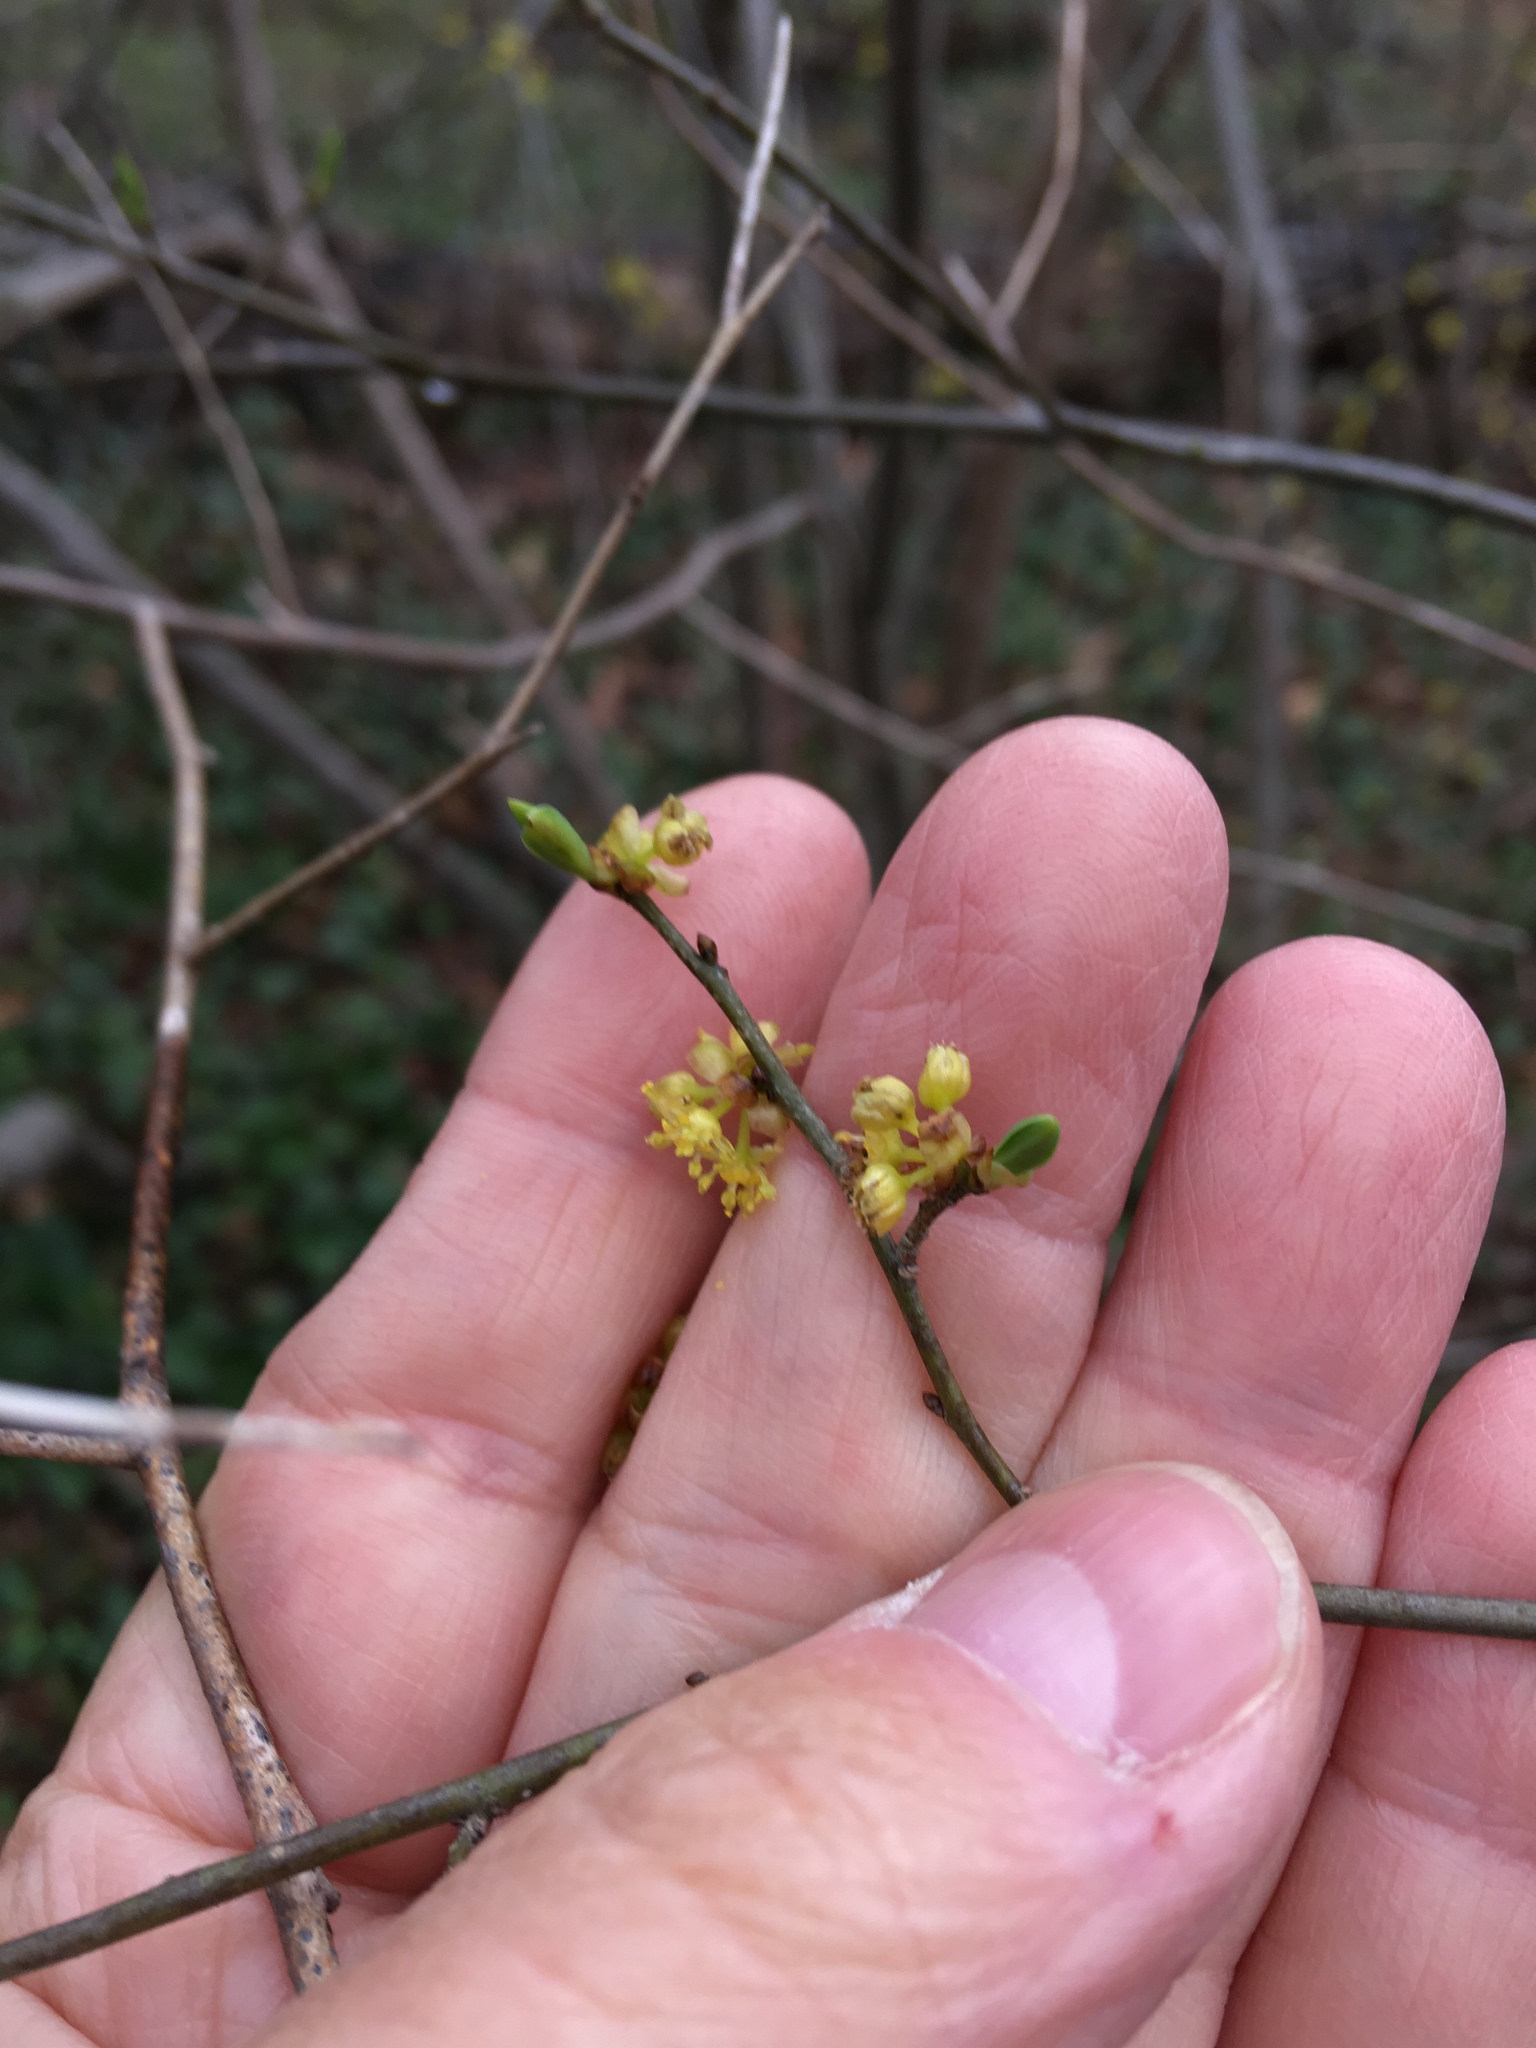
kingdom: Plantae
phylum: Tracheophyta
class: Magnoliopsida
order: Laurales
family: Lauraceae
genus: Lindera
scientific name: Lindera benzoin
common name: Spicebush
